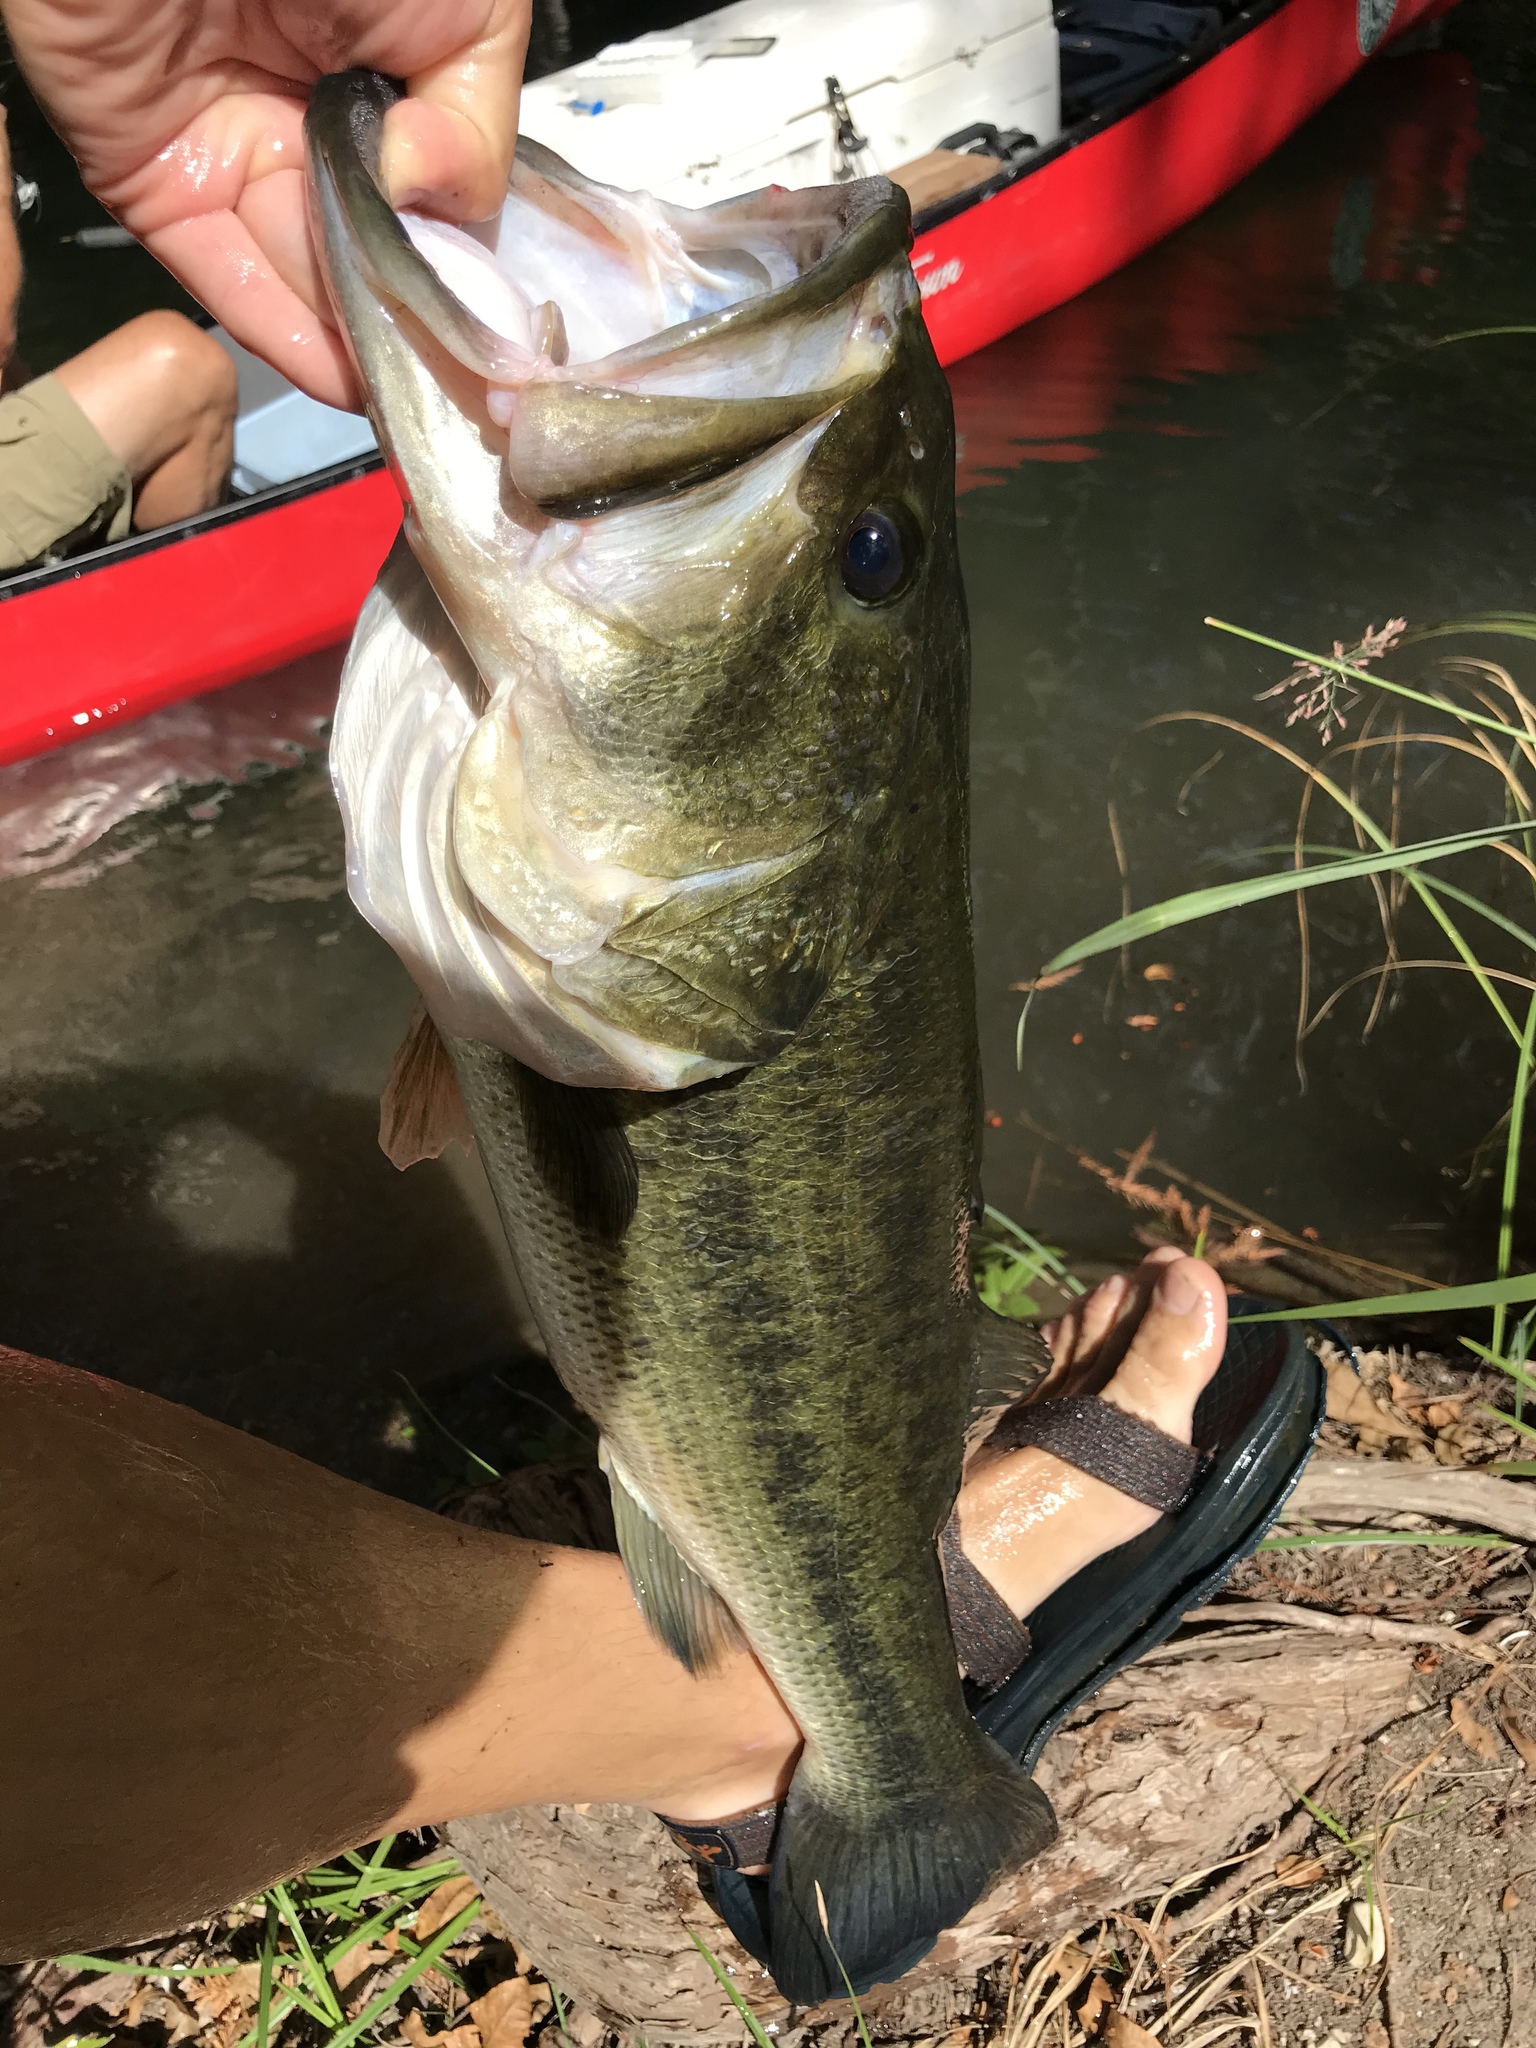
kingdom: Animalia
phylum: Chordata
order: Perciformes
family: Centrarchidae
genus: Micropterus
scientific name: Micropterus
